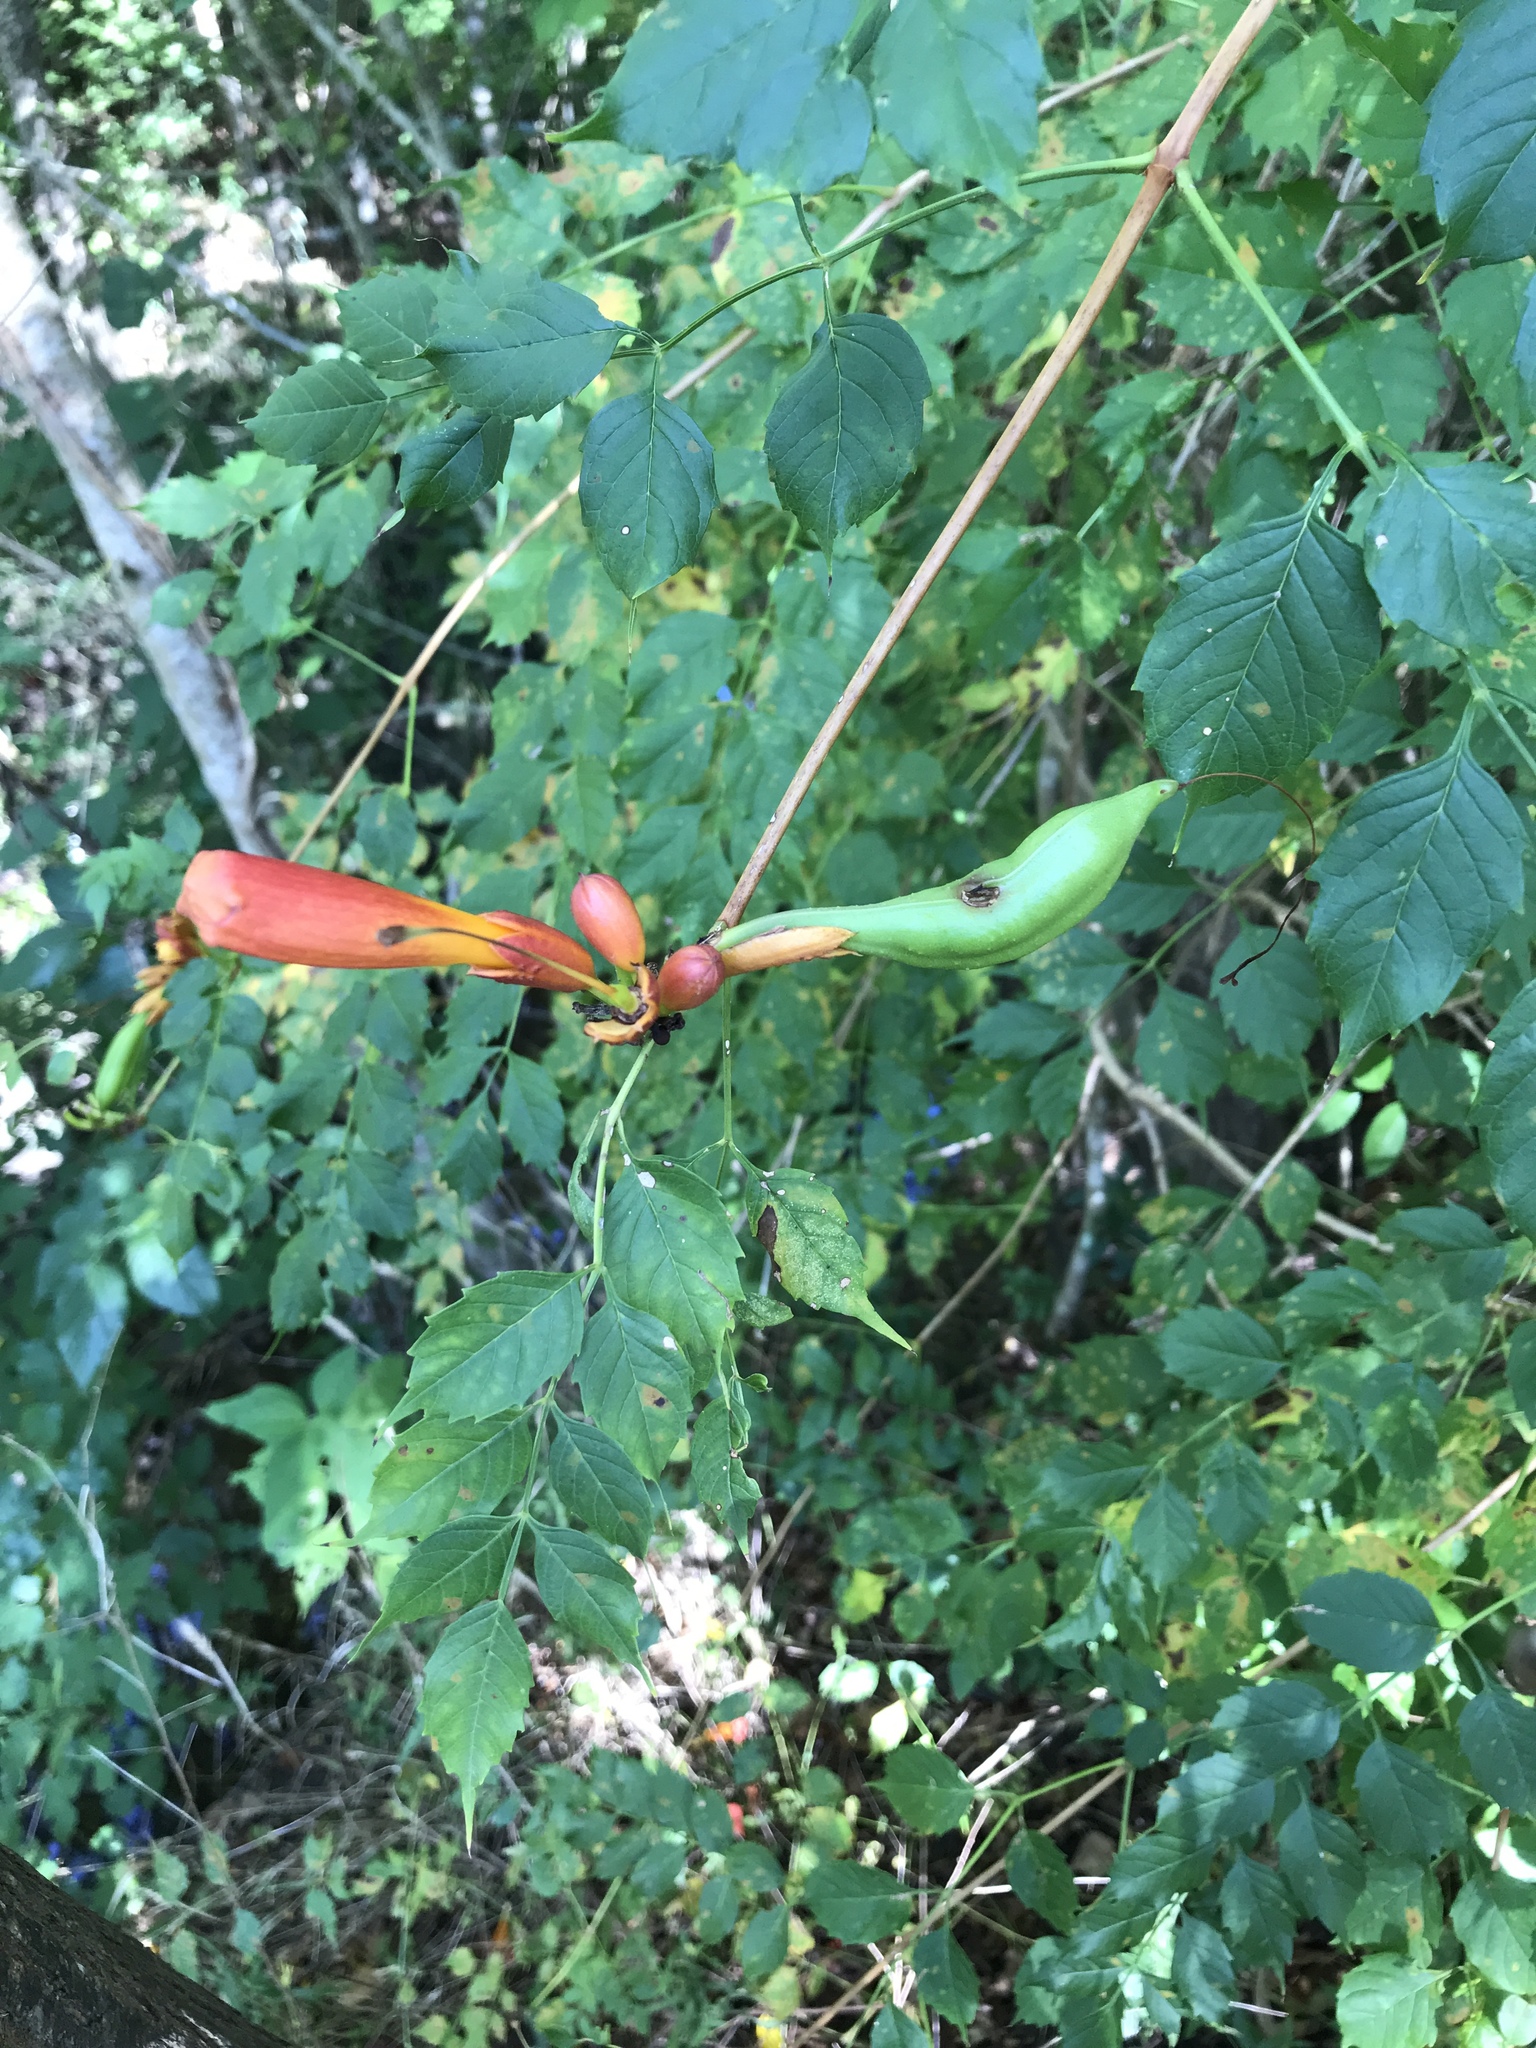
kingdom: Plantae
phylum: Tracheophyta
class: Magnoliopsida
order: Lamiales
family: Bignoniaceae
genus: Campsis
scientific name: Campsis radicans
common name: Trumpet-creeper
